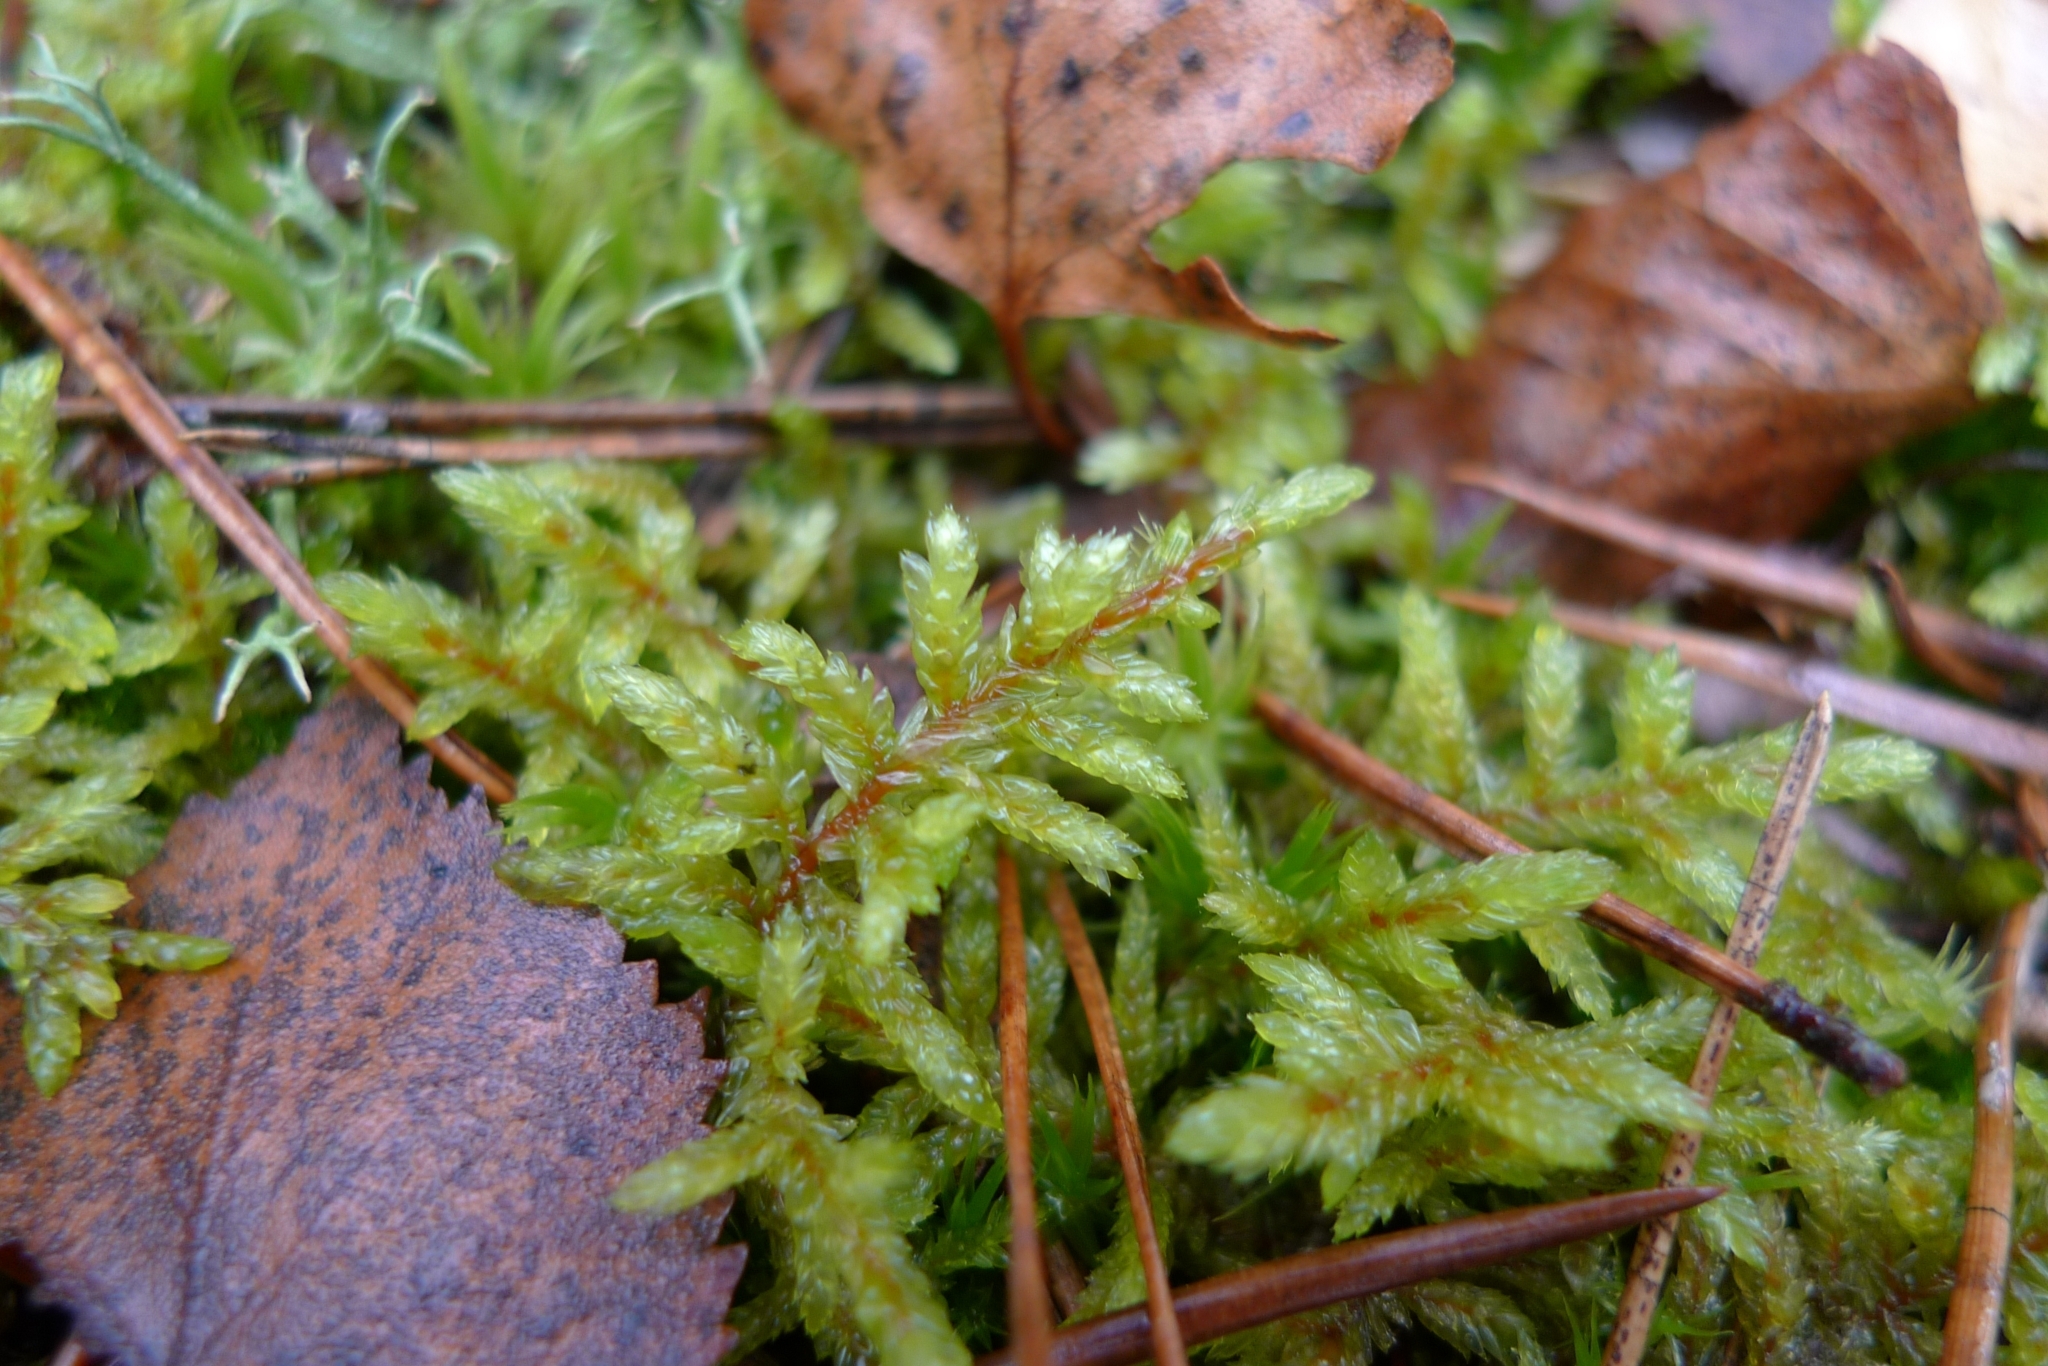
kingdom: Plantae
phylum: Bryophyta
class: Bryopsida
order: Hypnales
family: Hylocomiaceae
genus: Pleurozium
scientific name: Pleurozium schreberi
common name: Red-stemmed feather moss
